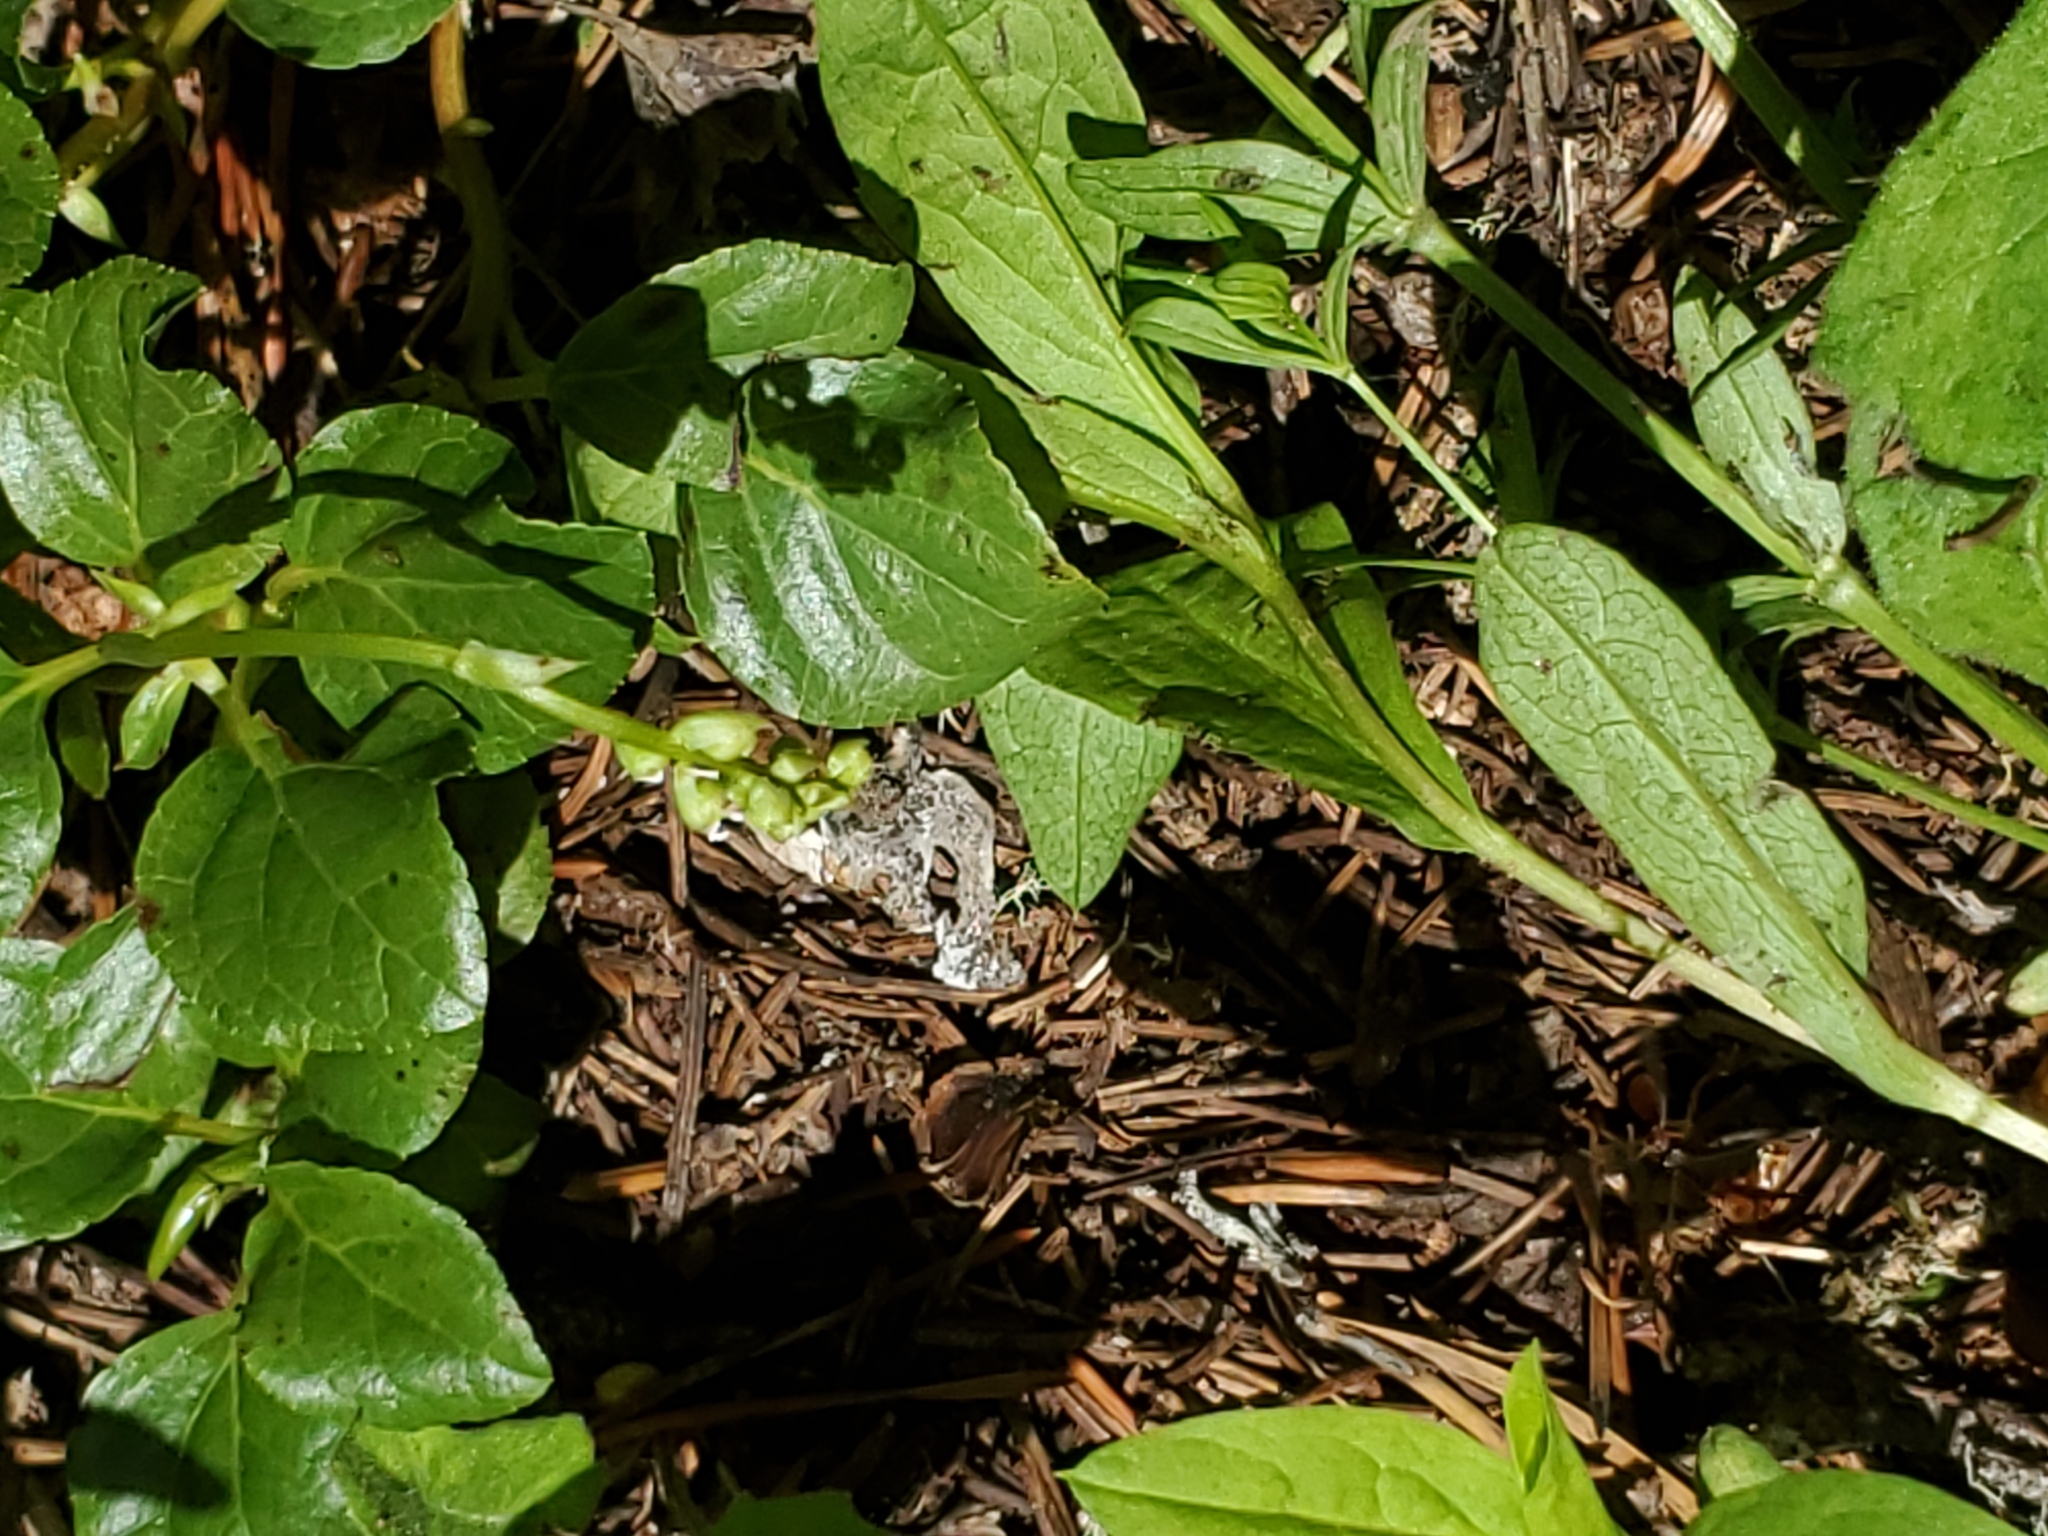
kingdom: Plantae
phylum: Tracheophyta
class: Magnoliopsida
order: Ericales
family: Ericaceae
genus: Orthilia
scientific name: Orthilia secunda
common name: One-sided orthilia
